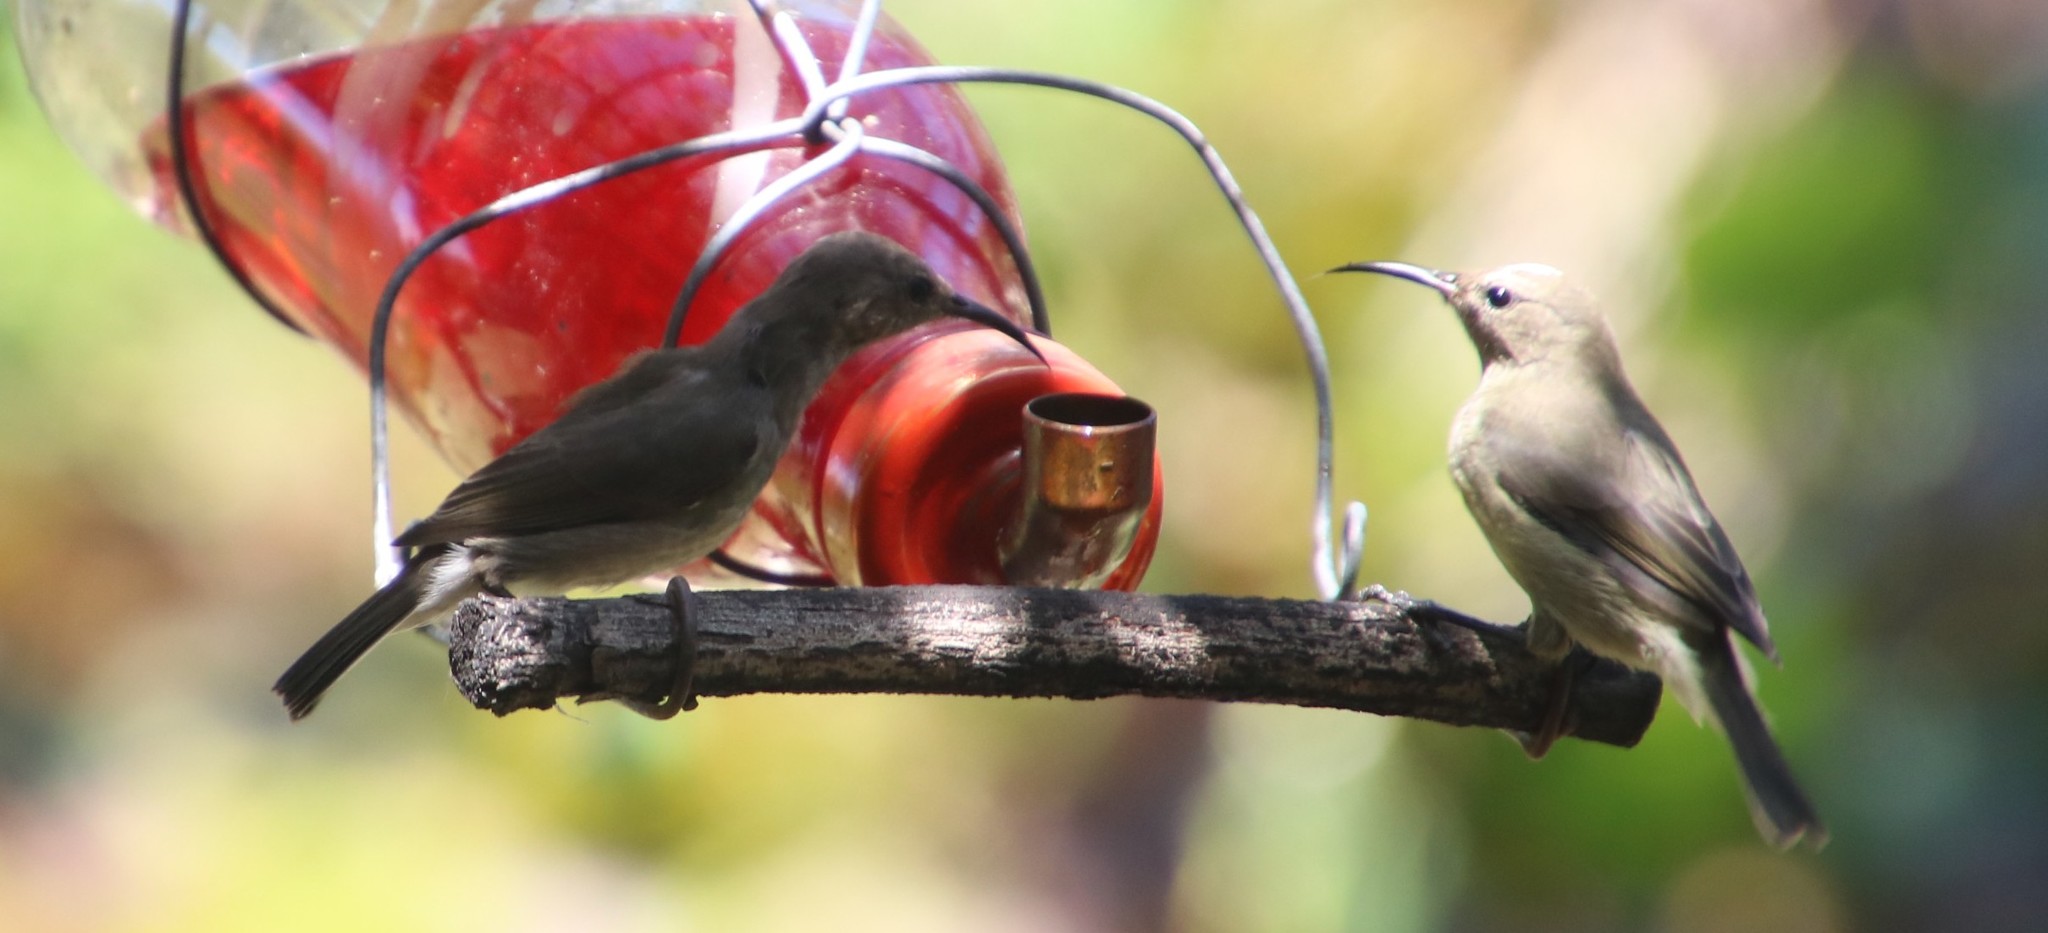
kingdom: Animalia
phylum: Chordata
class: Aves
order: Passeriformes
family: Nectariniidae
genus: Cinnyris
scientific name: Cinnyris chalybeus
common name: Southern double-collared sunbird
